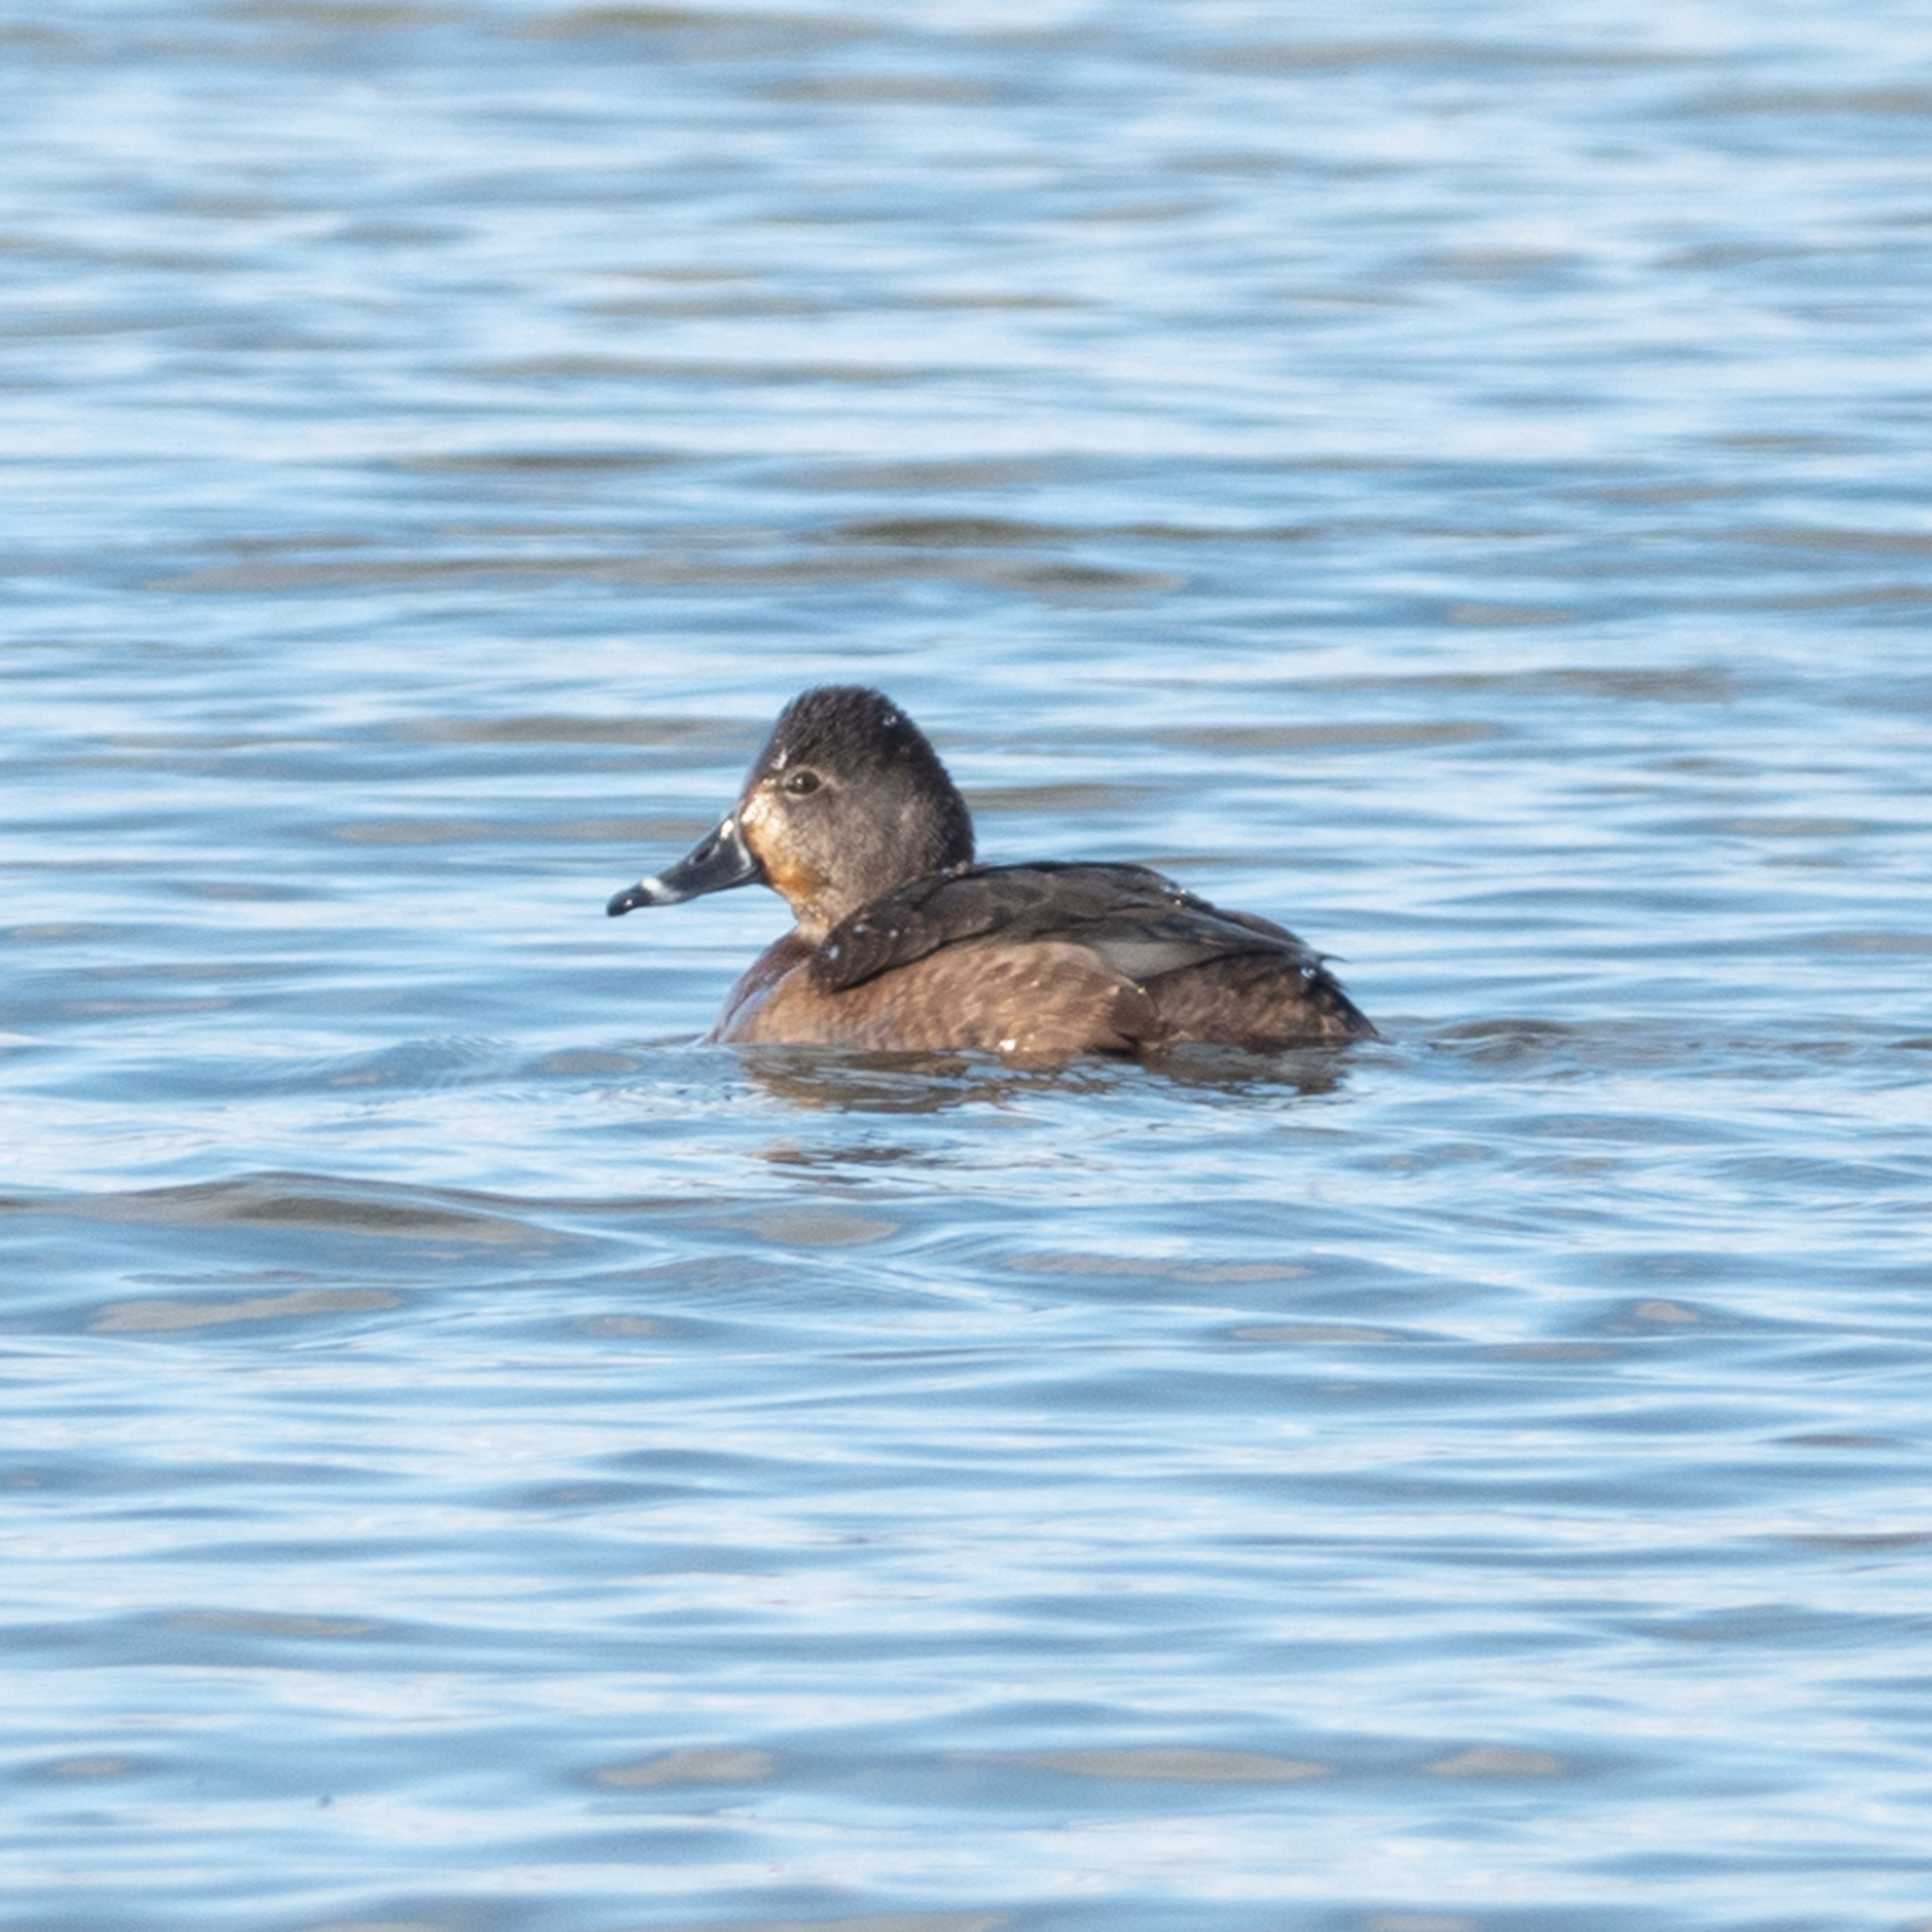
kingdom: Animalia
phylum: Chordata
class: Aves
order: Anseriformes
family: Anatidae
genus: Aythya
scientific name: Aythya collaris
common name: Ring-necked duck
